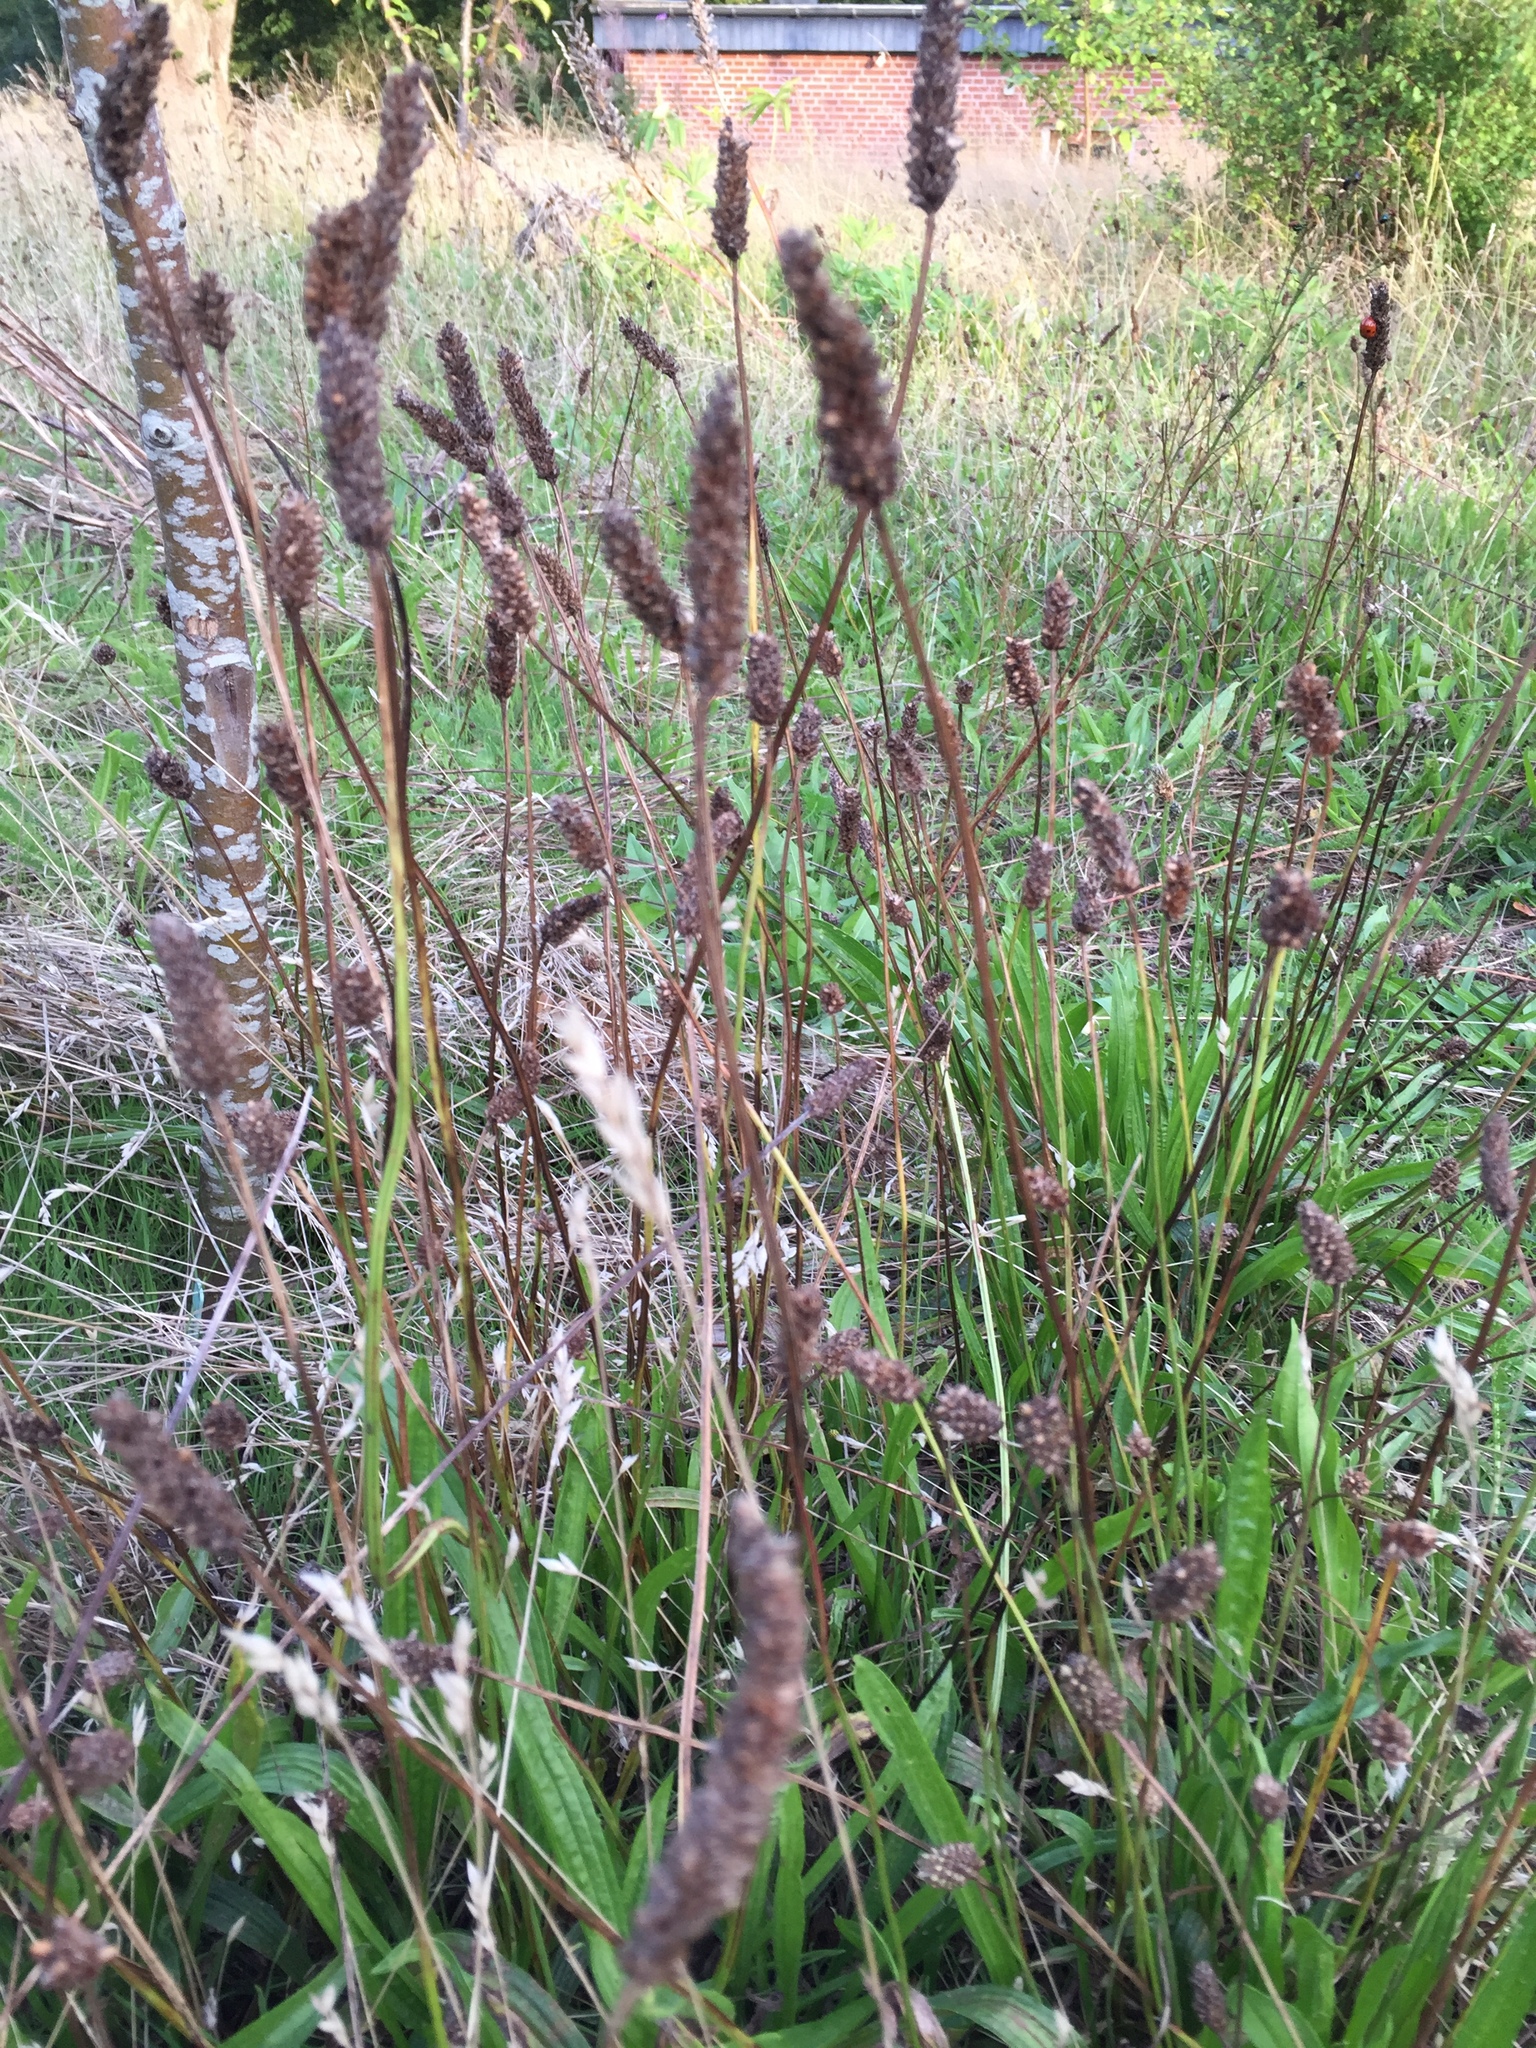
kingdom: Plantae
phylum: Tracheophyta
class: Magnoliopsida
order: Lamiales
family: Plantaginaceae
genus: Plantago
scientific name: Plantago lanceolata
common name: Ribwort plantain
